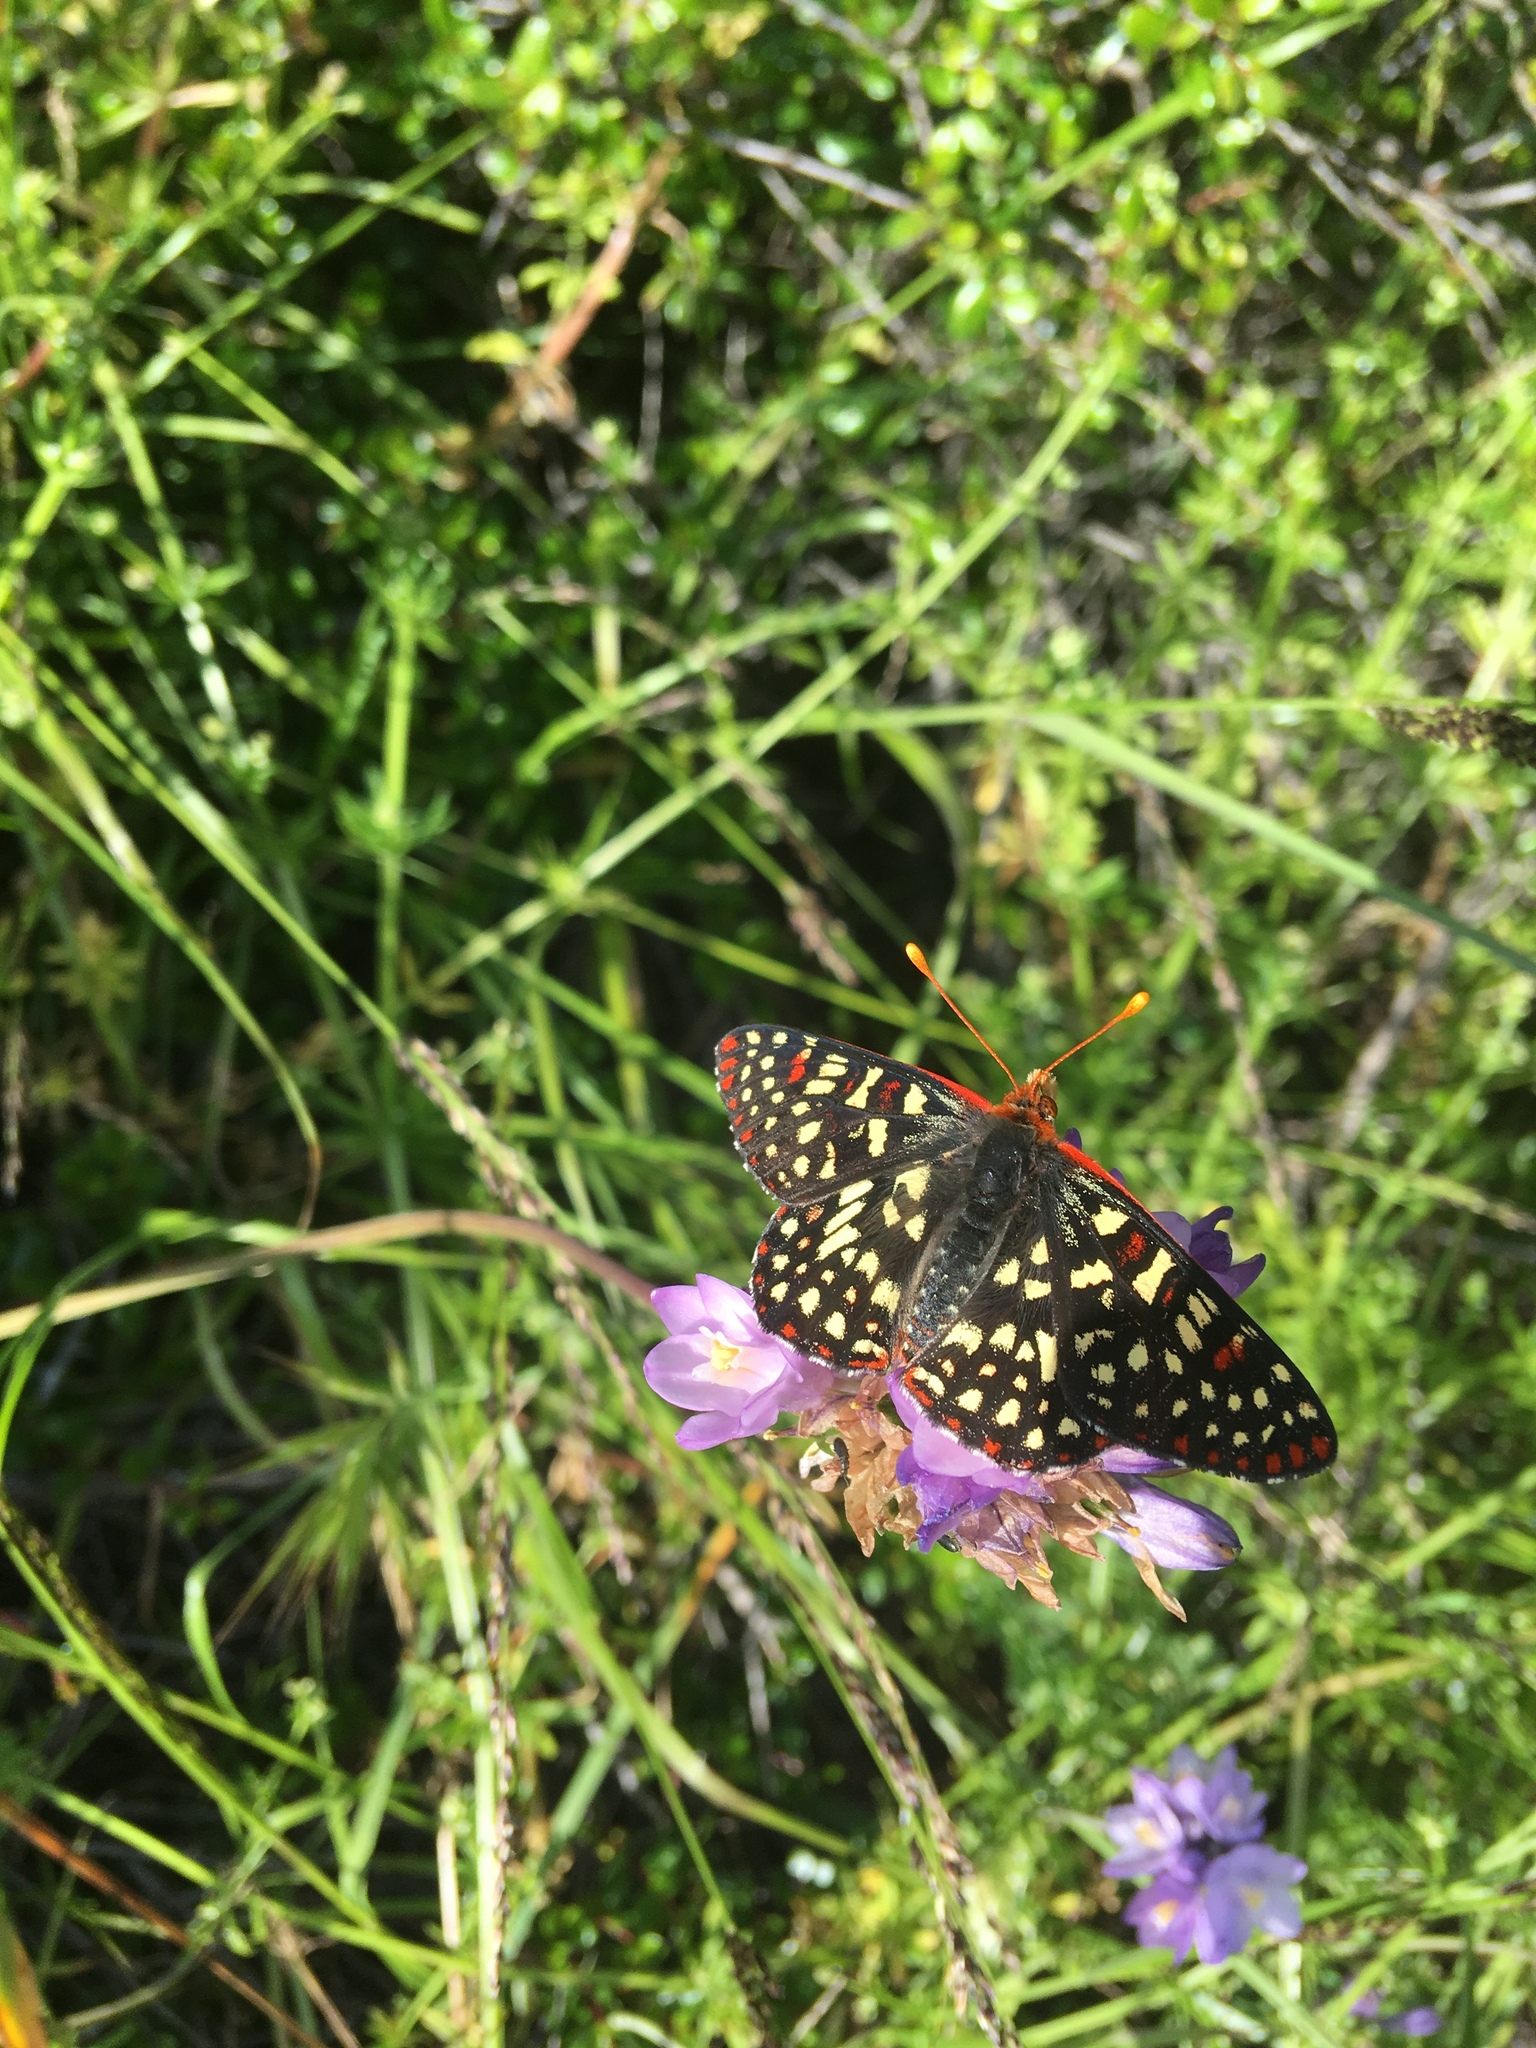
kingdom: Animalia
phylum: Arthropoda
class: Insecta
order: Lepidoptera
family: Nymphalidae
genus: Occidryas
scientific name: Occidryas chalcedona
